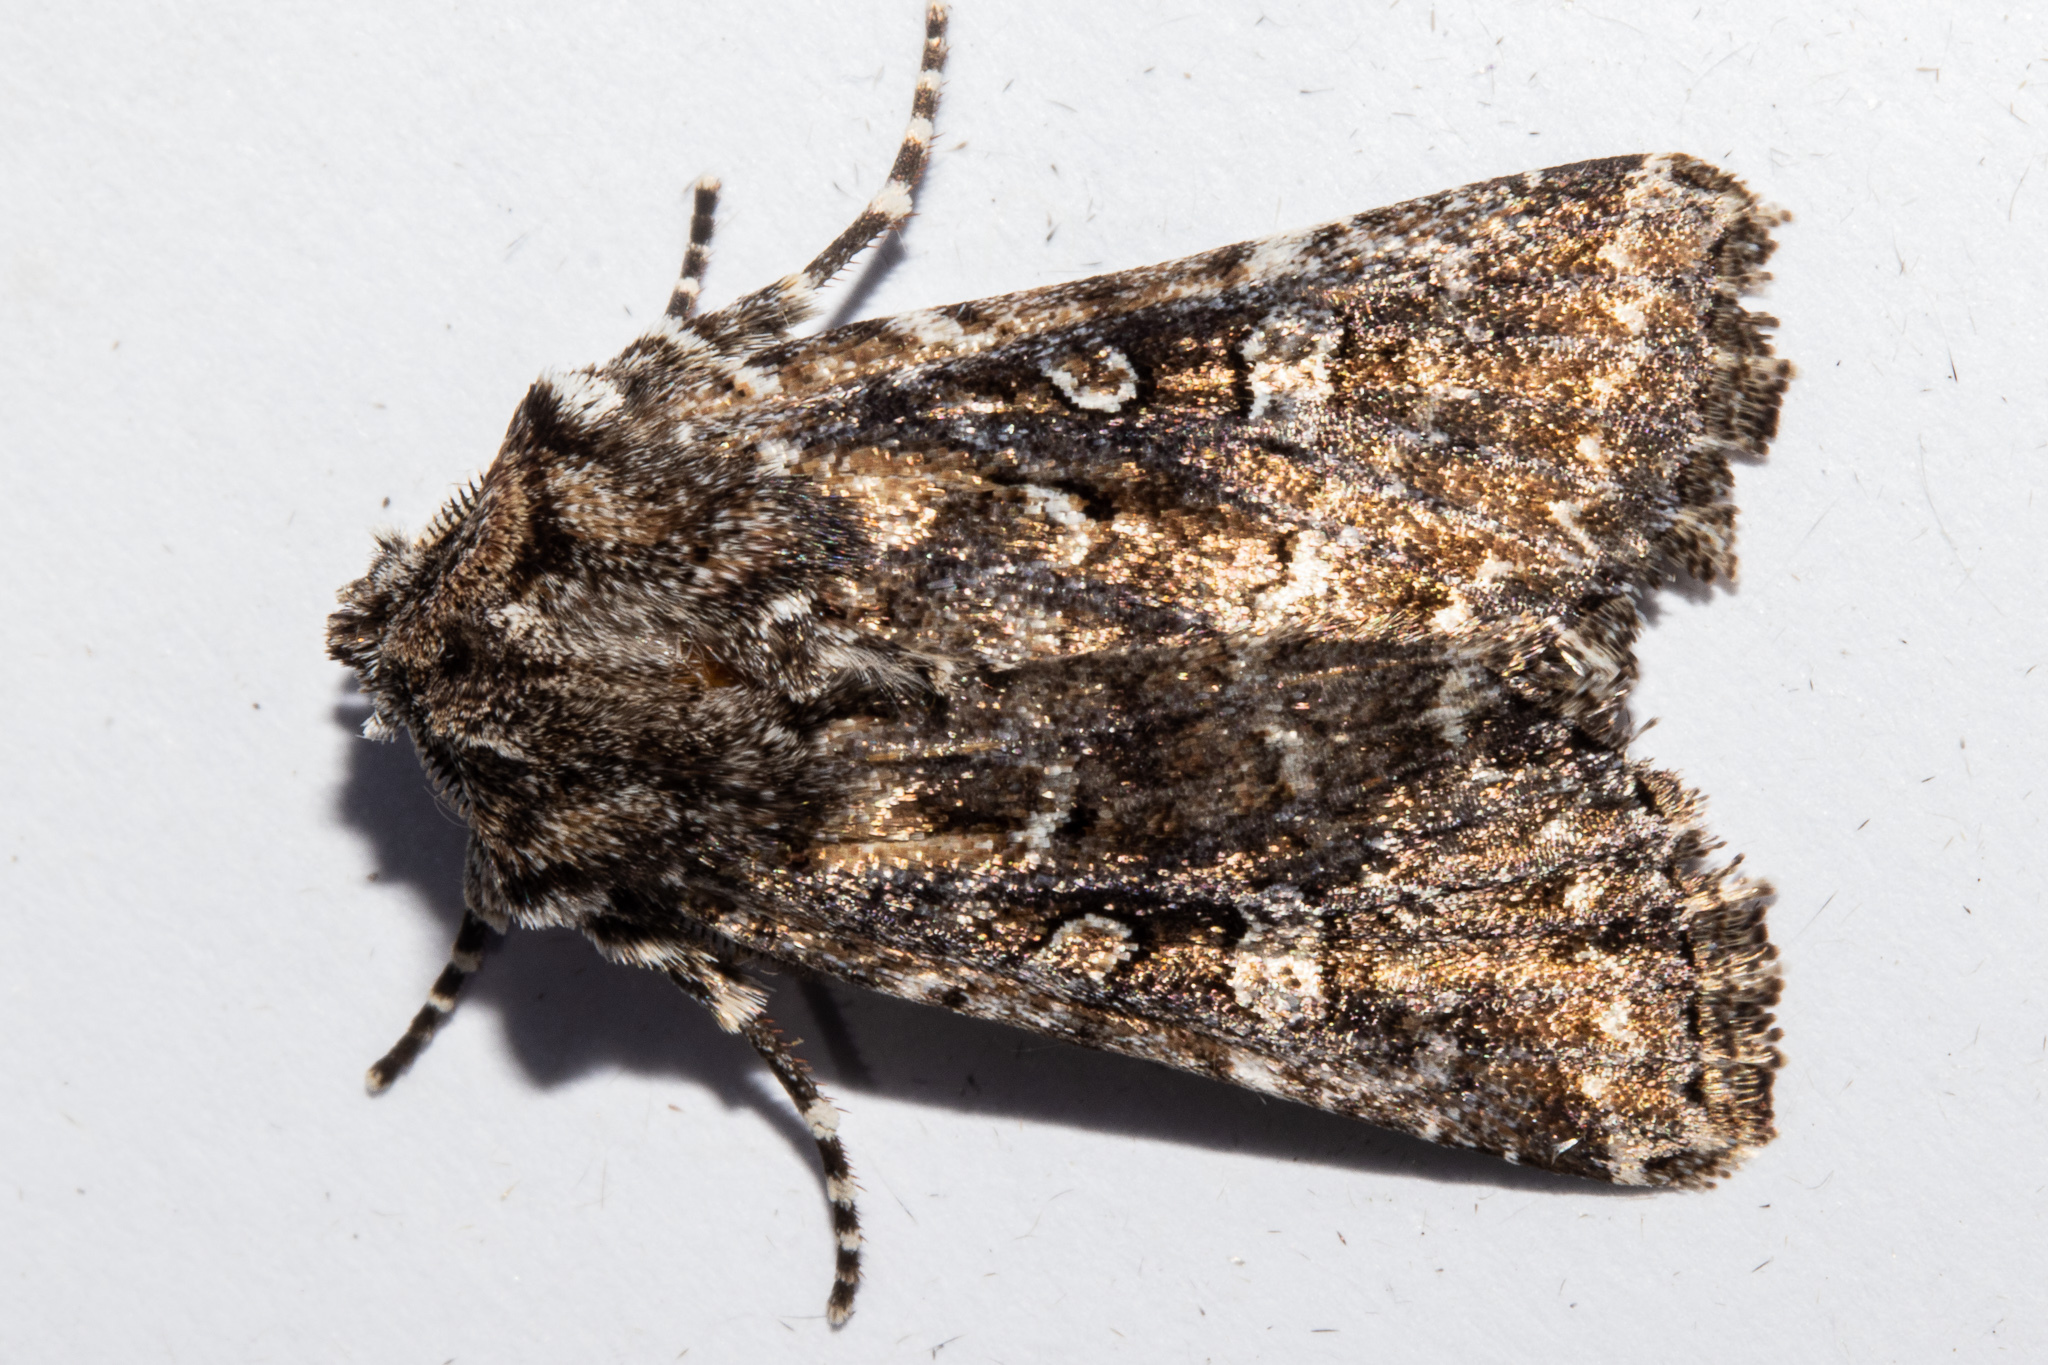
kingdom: Animalia
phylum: Arthropoda
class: Insecta
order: Lepidoptera
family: Noctuidae
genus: Ichneutica
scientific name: Ichneutica lithias
